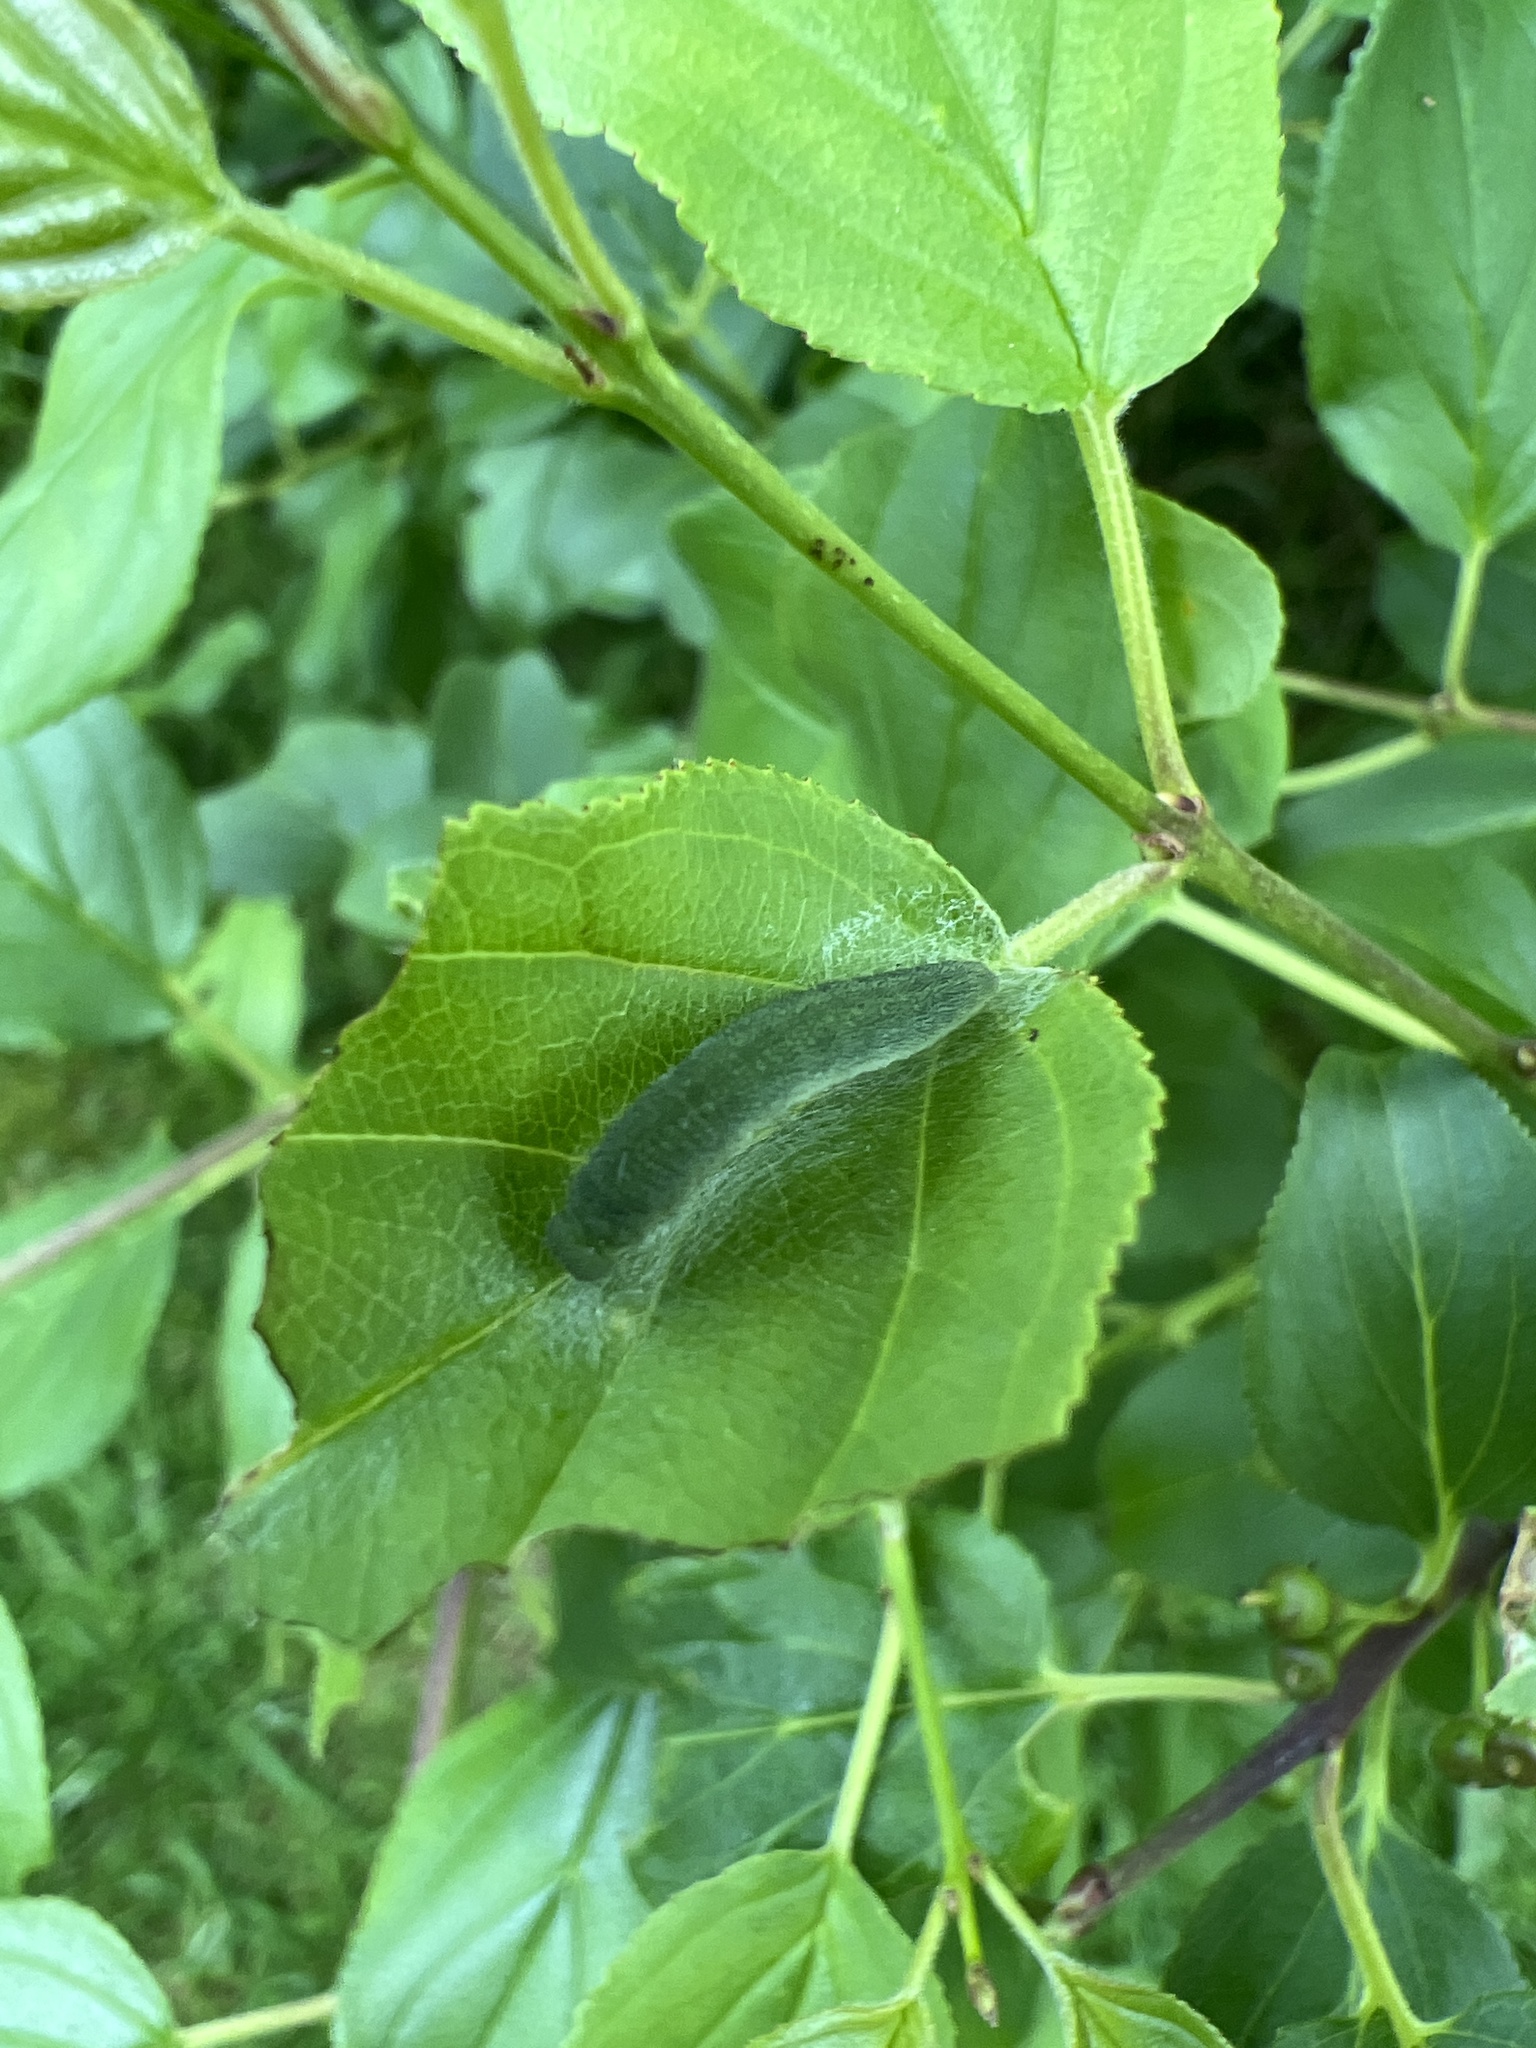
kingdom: Animalia
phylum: Arthropoda
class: Insecta
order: Lepidoptera
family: Pieridae
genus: Gonepteryx
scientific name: Gonepteryx rhamni
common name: Brimstone
